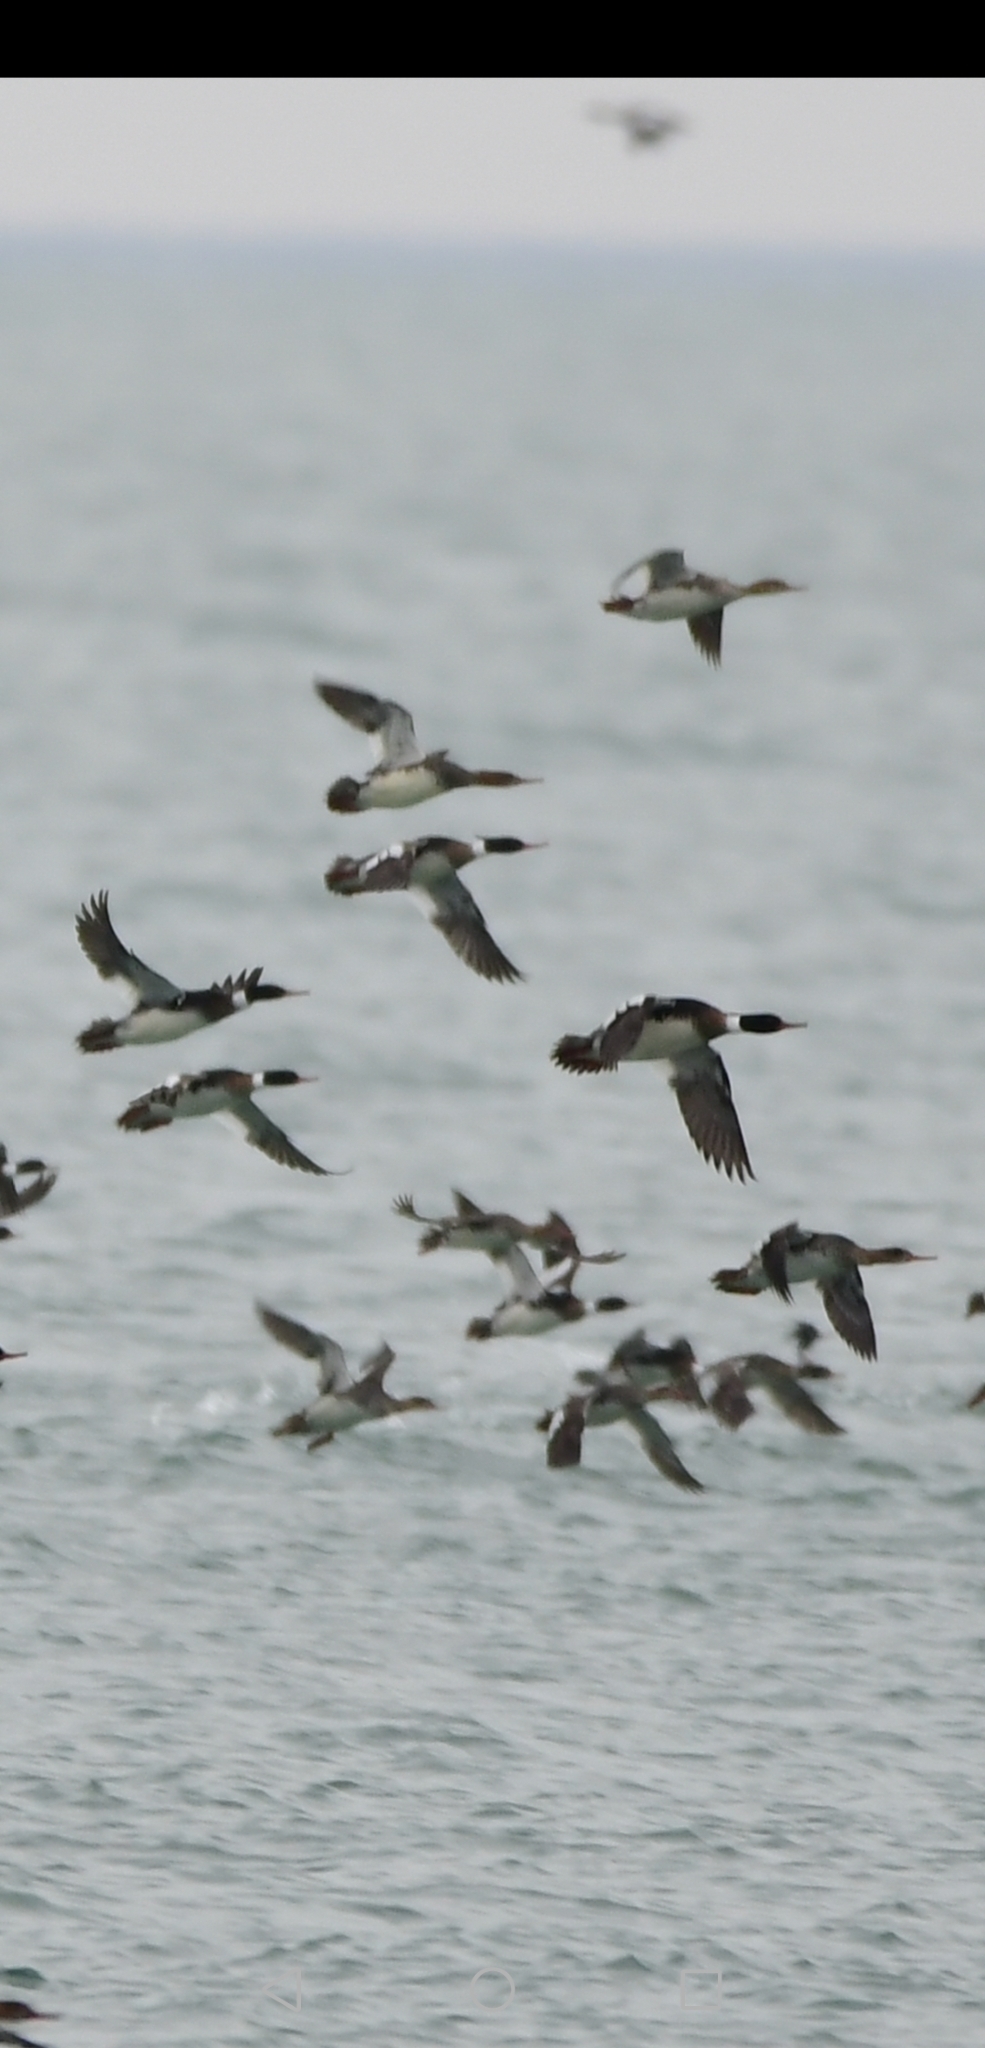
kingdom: Animalia
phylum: Chordata
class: Aves
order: Anseriformes
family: Anatidae
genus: Mergus
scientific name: Mergus serrator
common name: Red-breasted merganser
